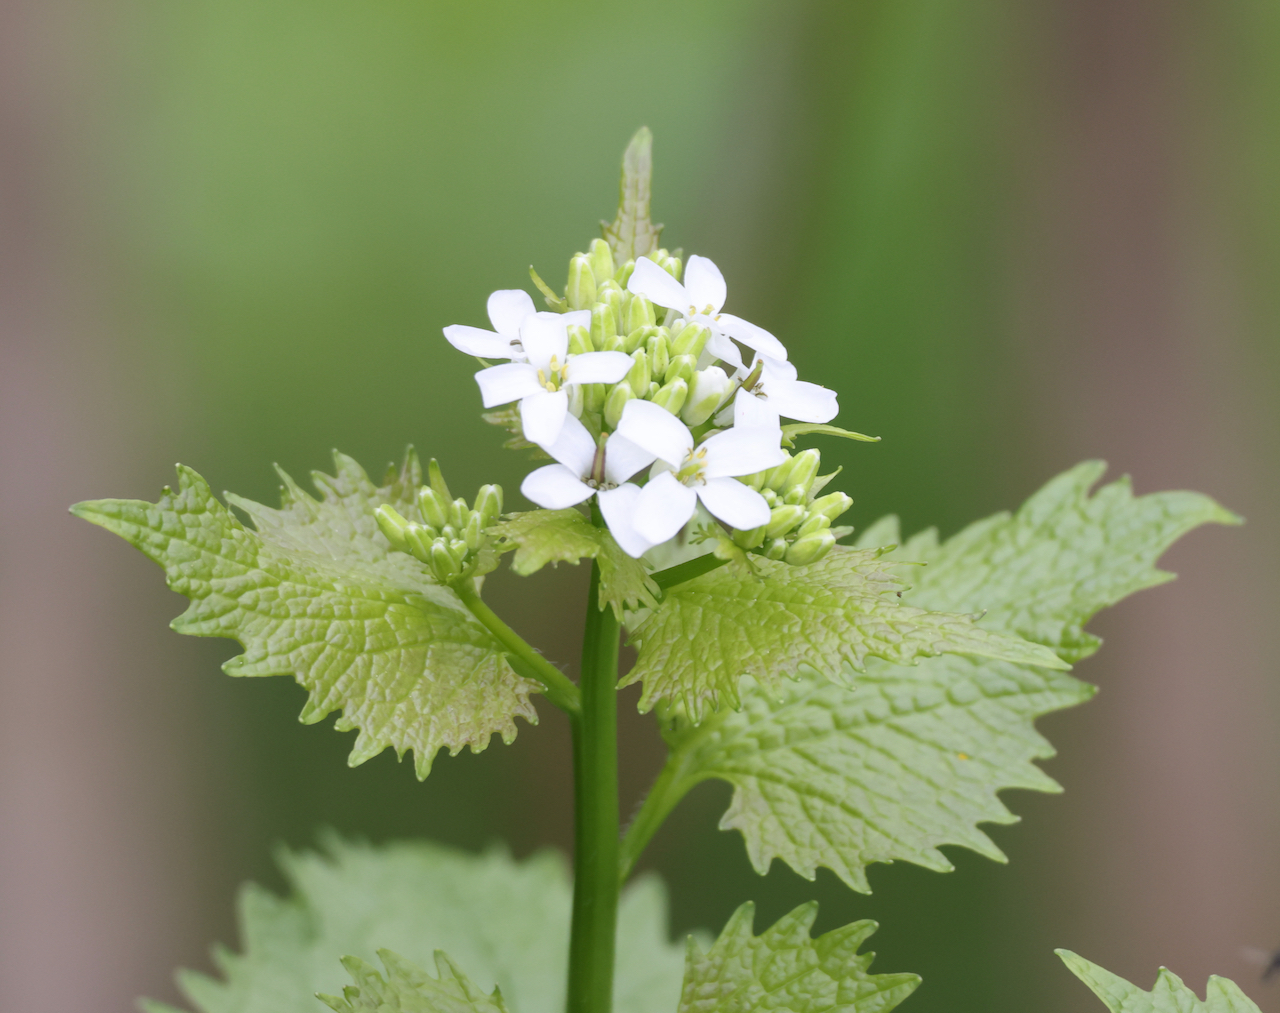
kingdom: Plantae
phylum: Tracheophyta
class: Magnoliopsida
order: Brassicales
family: Brassicaceae
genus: Alliaria
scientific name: Alliaria petiolata
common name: Garlic mustard
